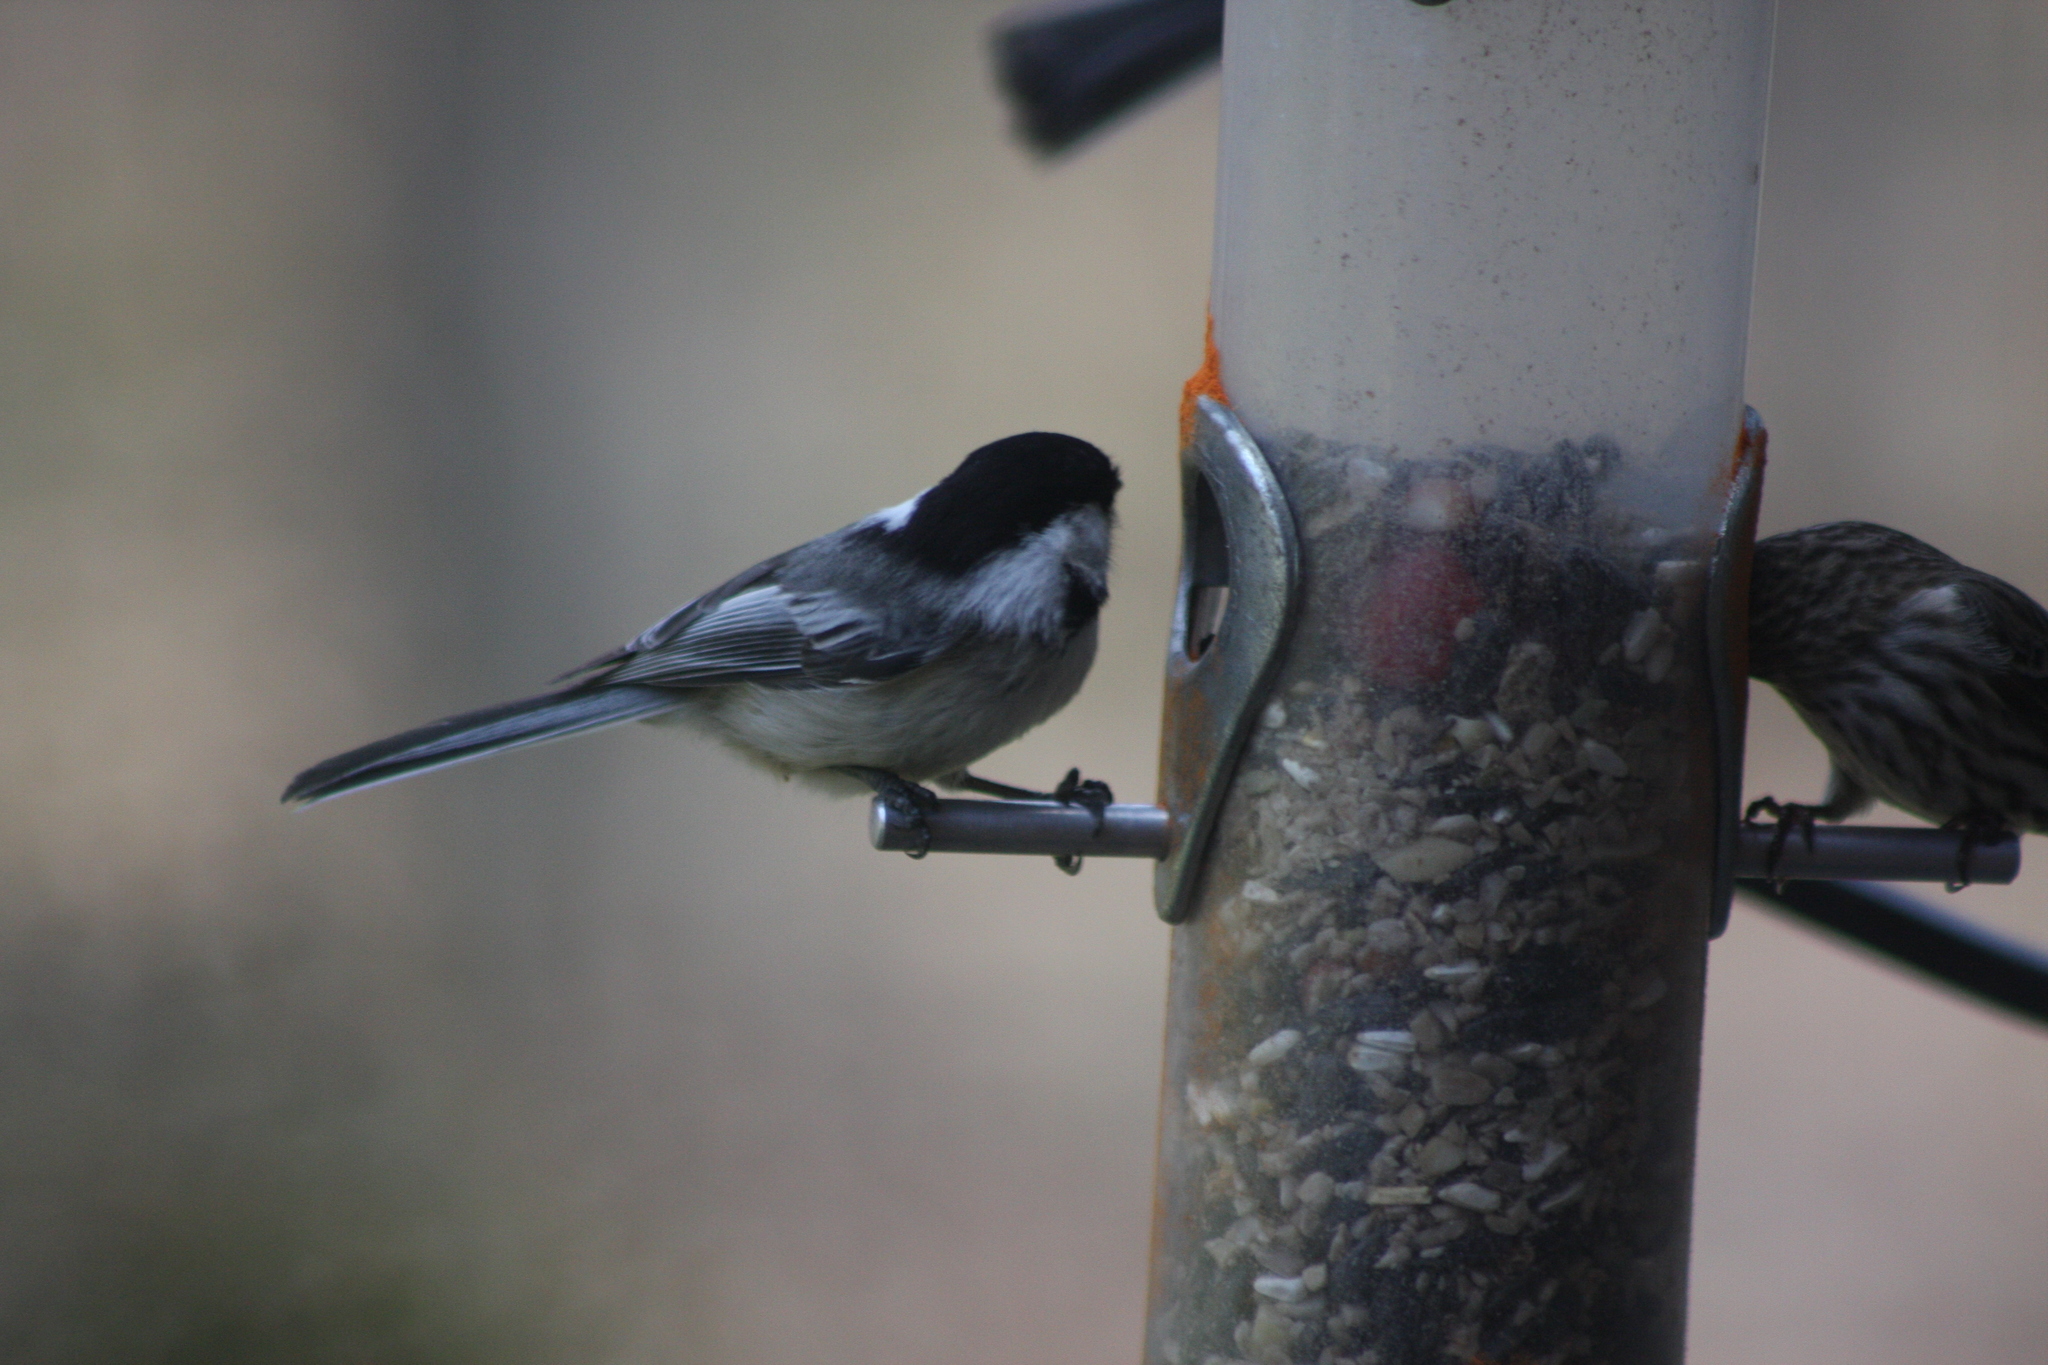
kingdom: Animalia
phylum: Chordata
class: Aves
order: Passeriformes
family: Paridae
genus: Poecile
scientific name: Poecile atricapillus
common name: Black-capped chickadee
